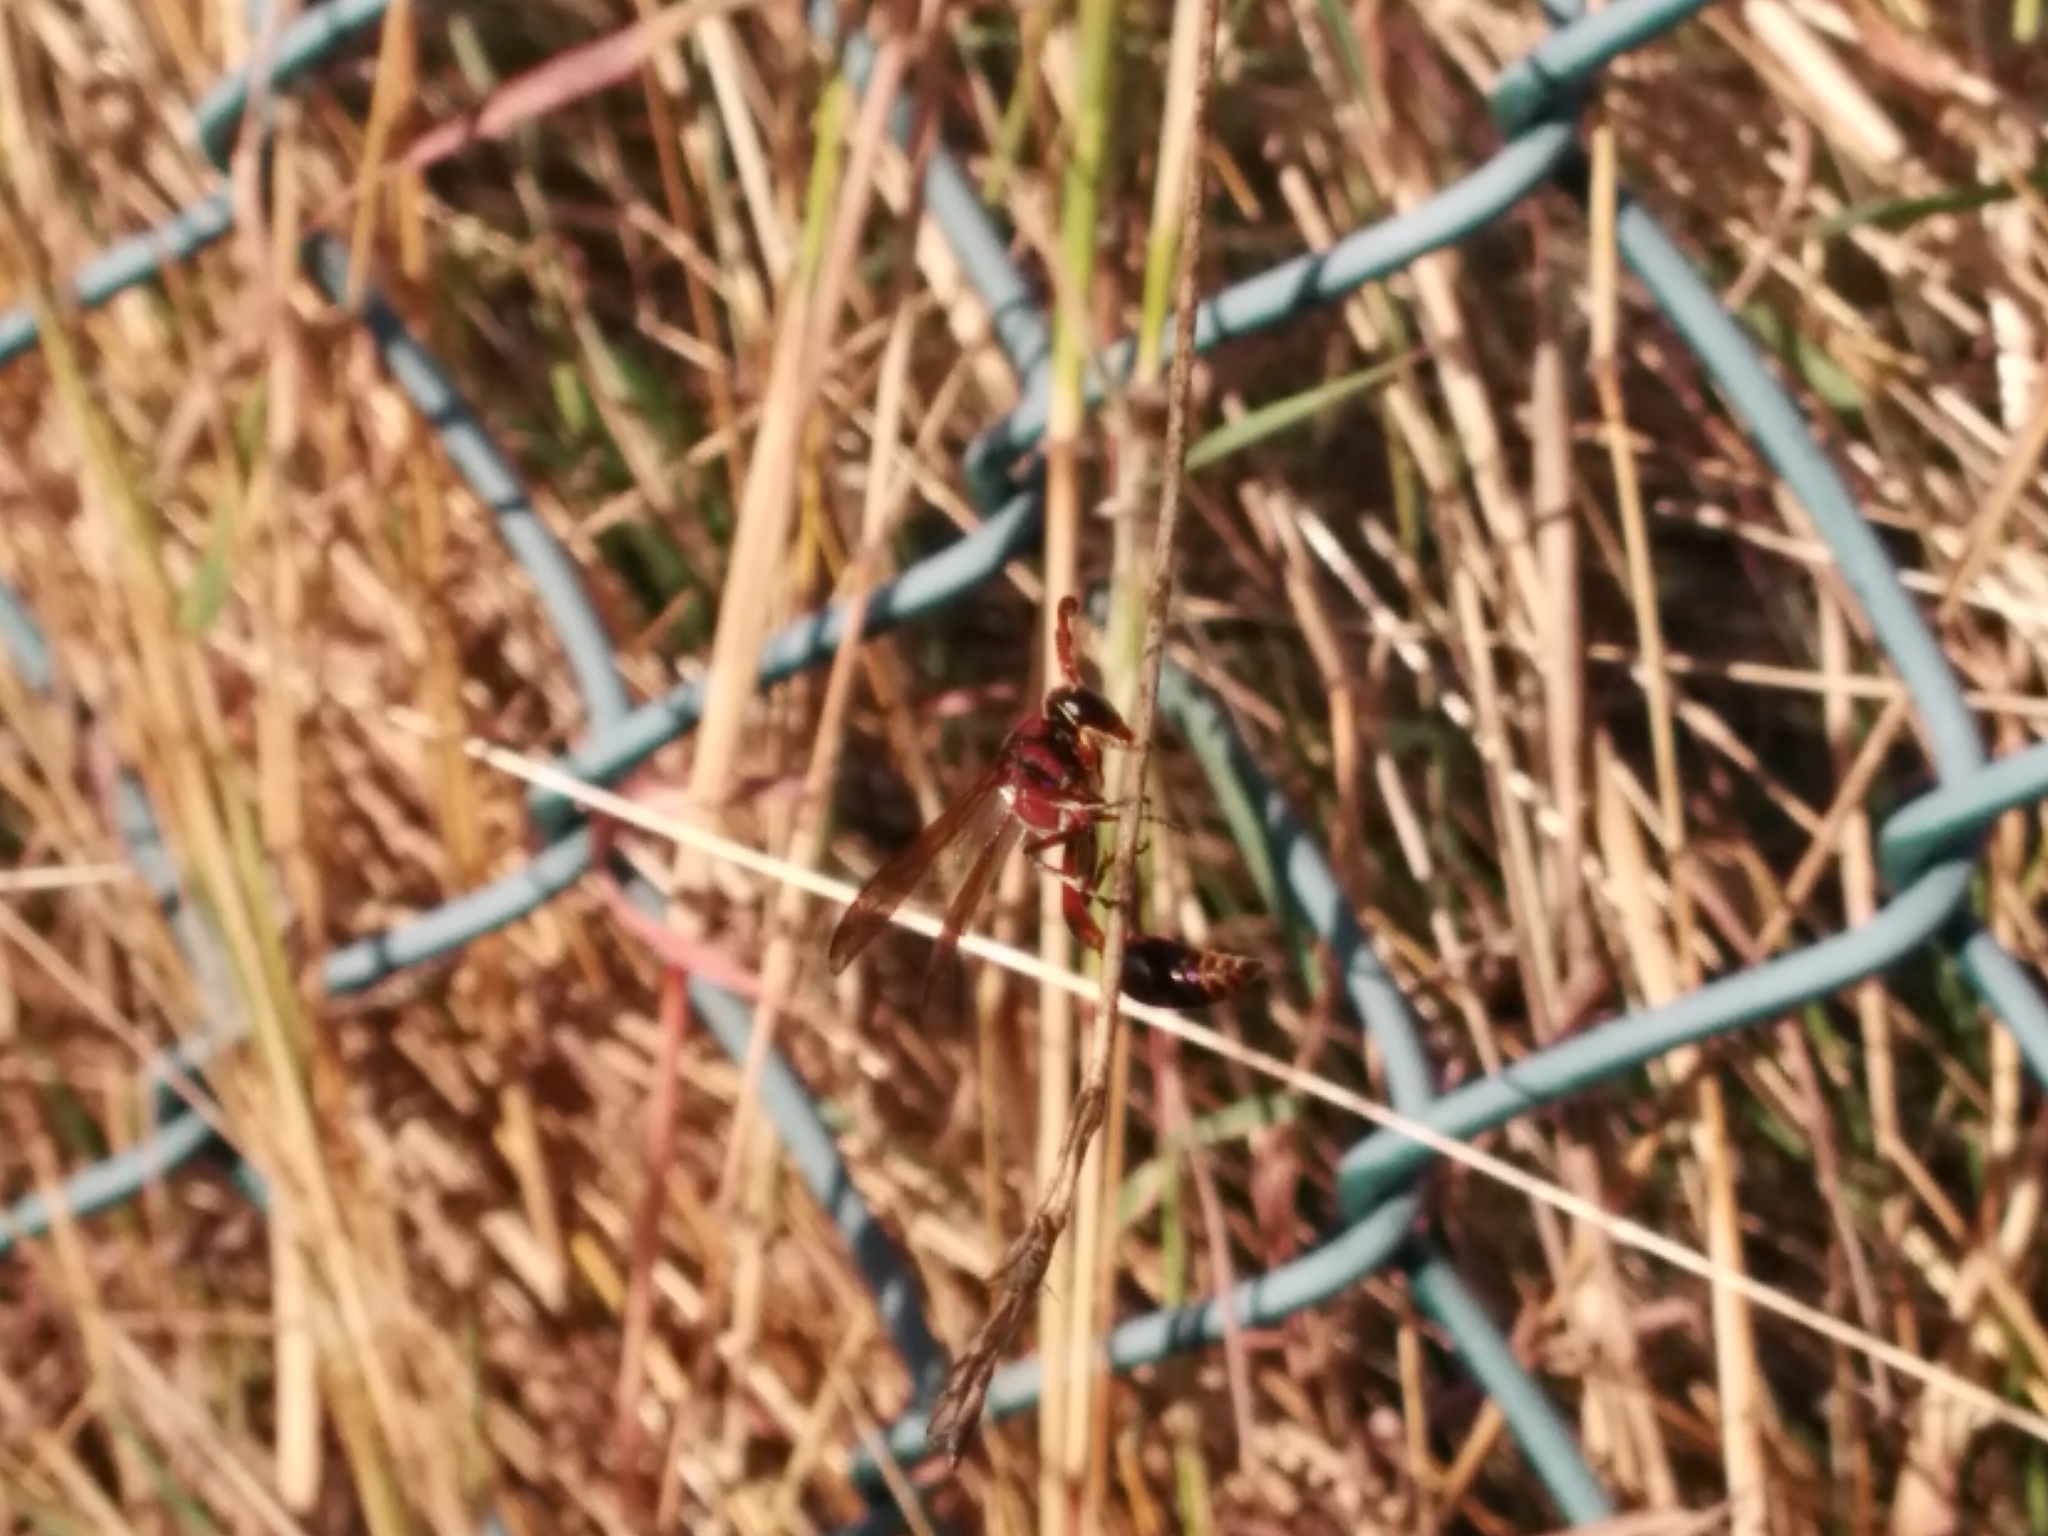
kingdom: Animalia
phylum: Arthropoda
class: Insecta
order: Hymenoptera
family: Eumenidae
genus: Delta
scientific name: Delta higletti
